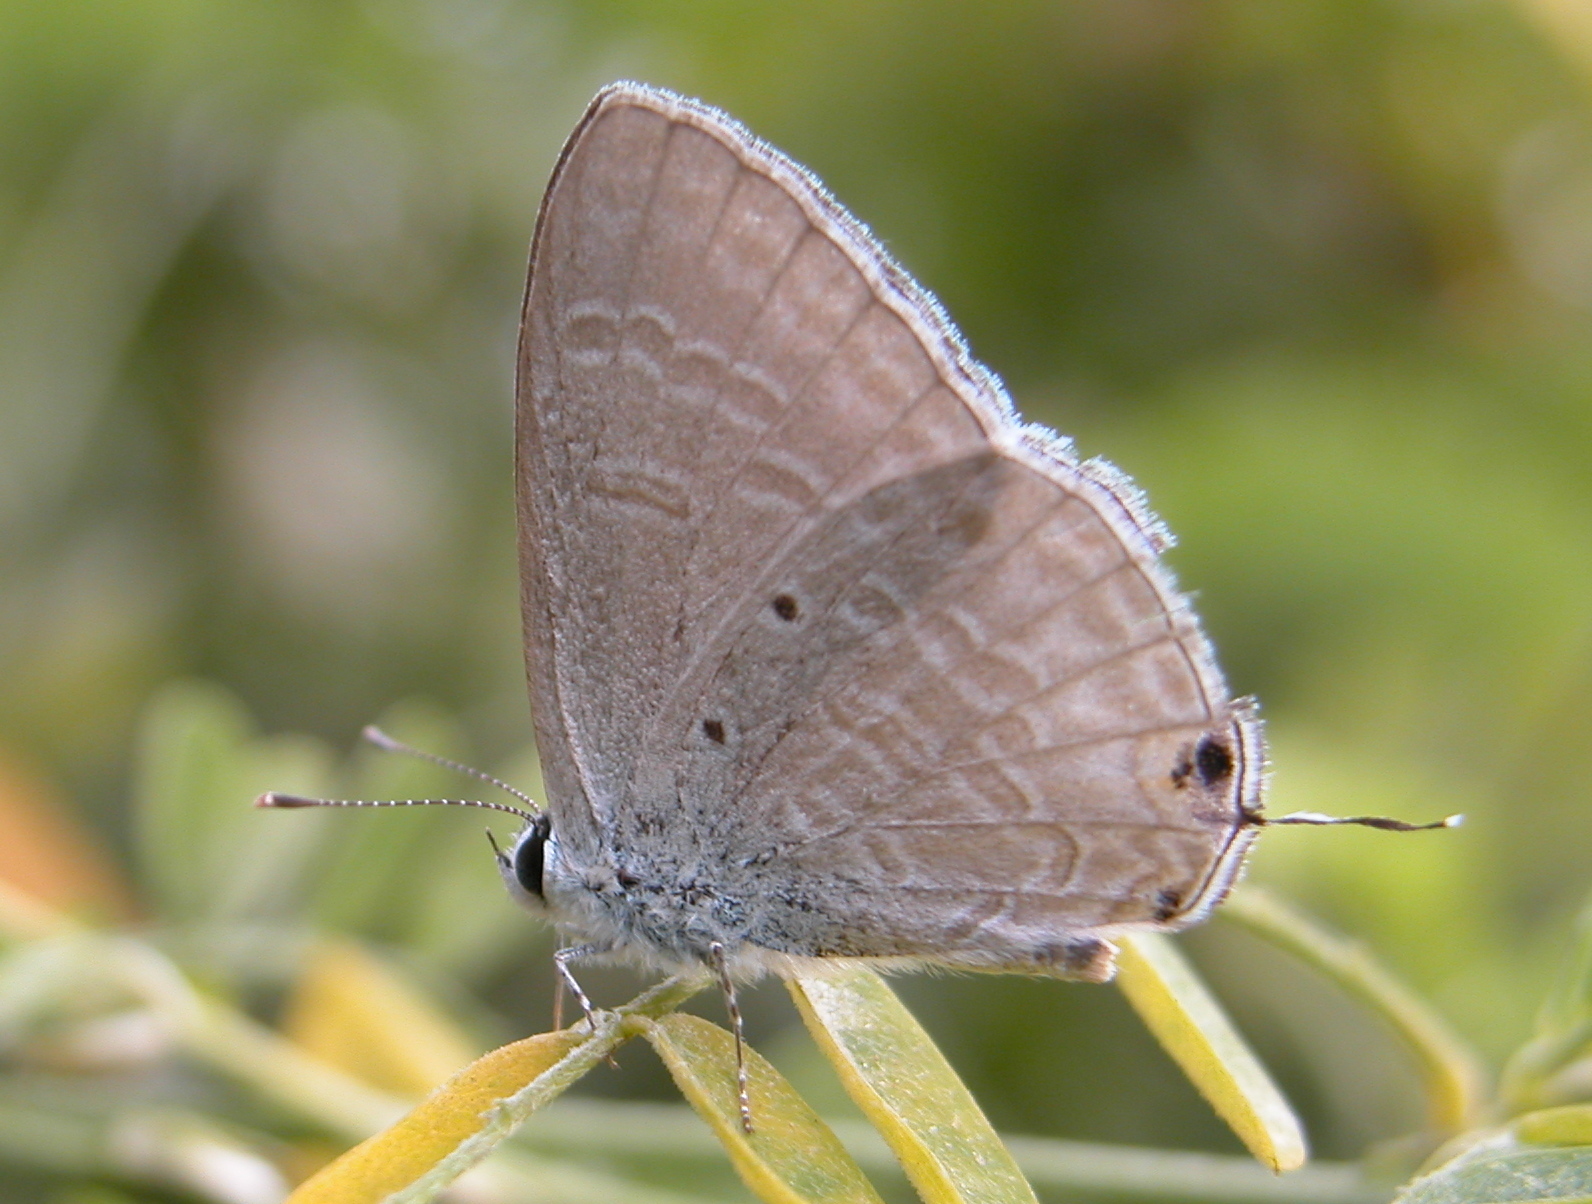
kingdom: Animalia
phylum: Arthropoda
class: Insecta
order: Lepidoptera
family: Lycaenidae
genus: Catochrysops
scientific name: Catochrysops strabo
